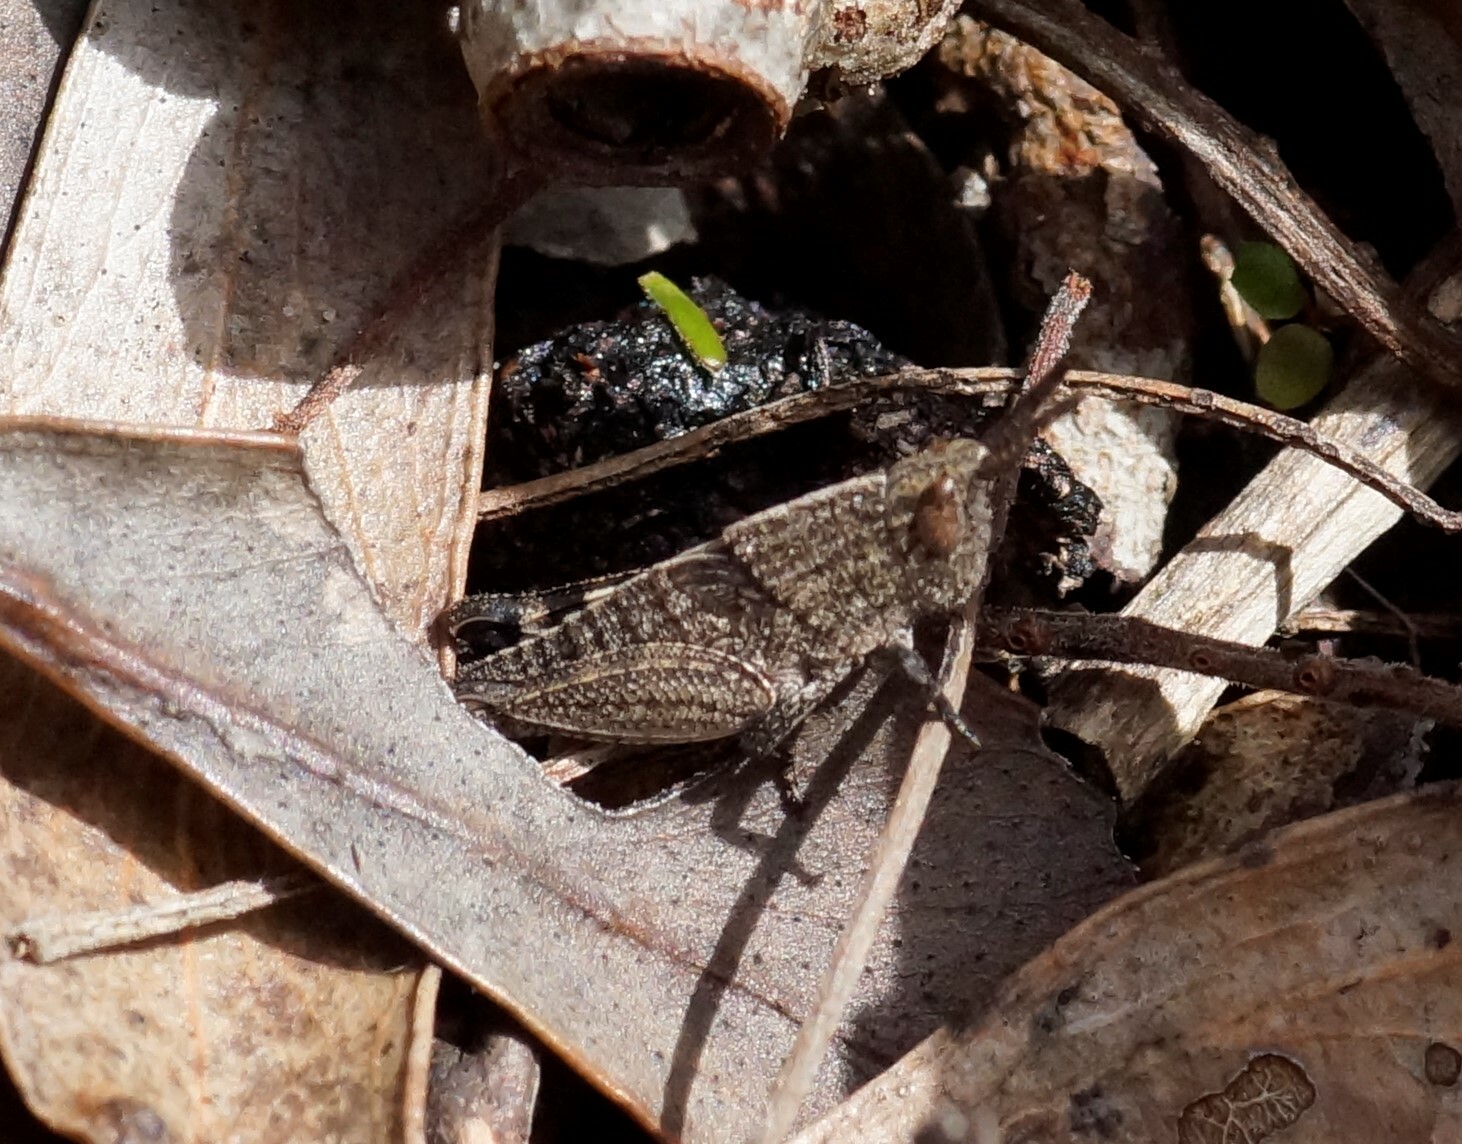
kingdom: Animalia
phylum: Arthropoda
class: Insecta
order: Orthoptera
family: Acrididae
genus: Goniaea
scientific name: Goniaea opomaloides
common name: Mimetic gumleaf grasshopper
